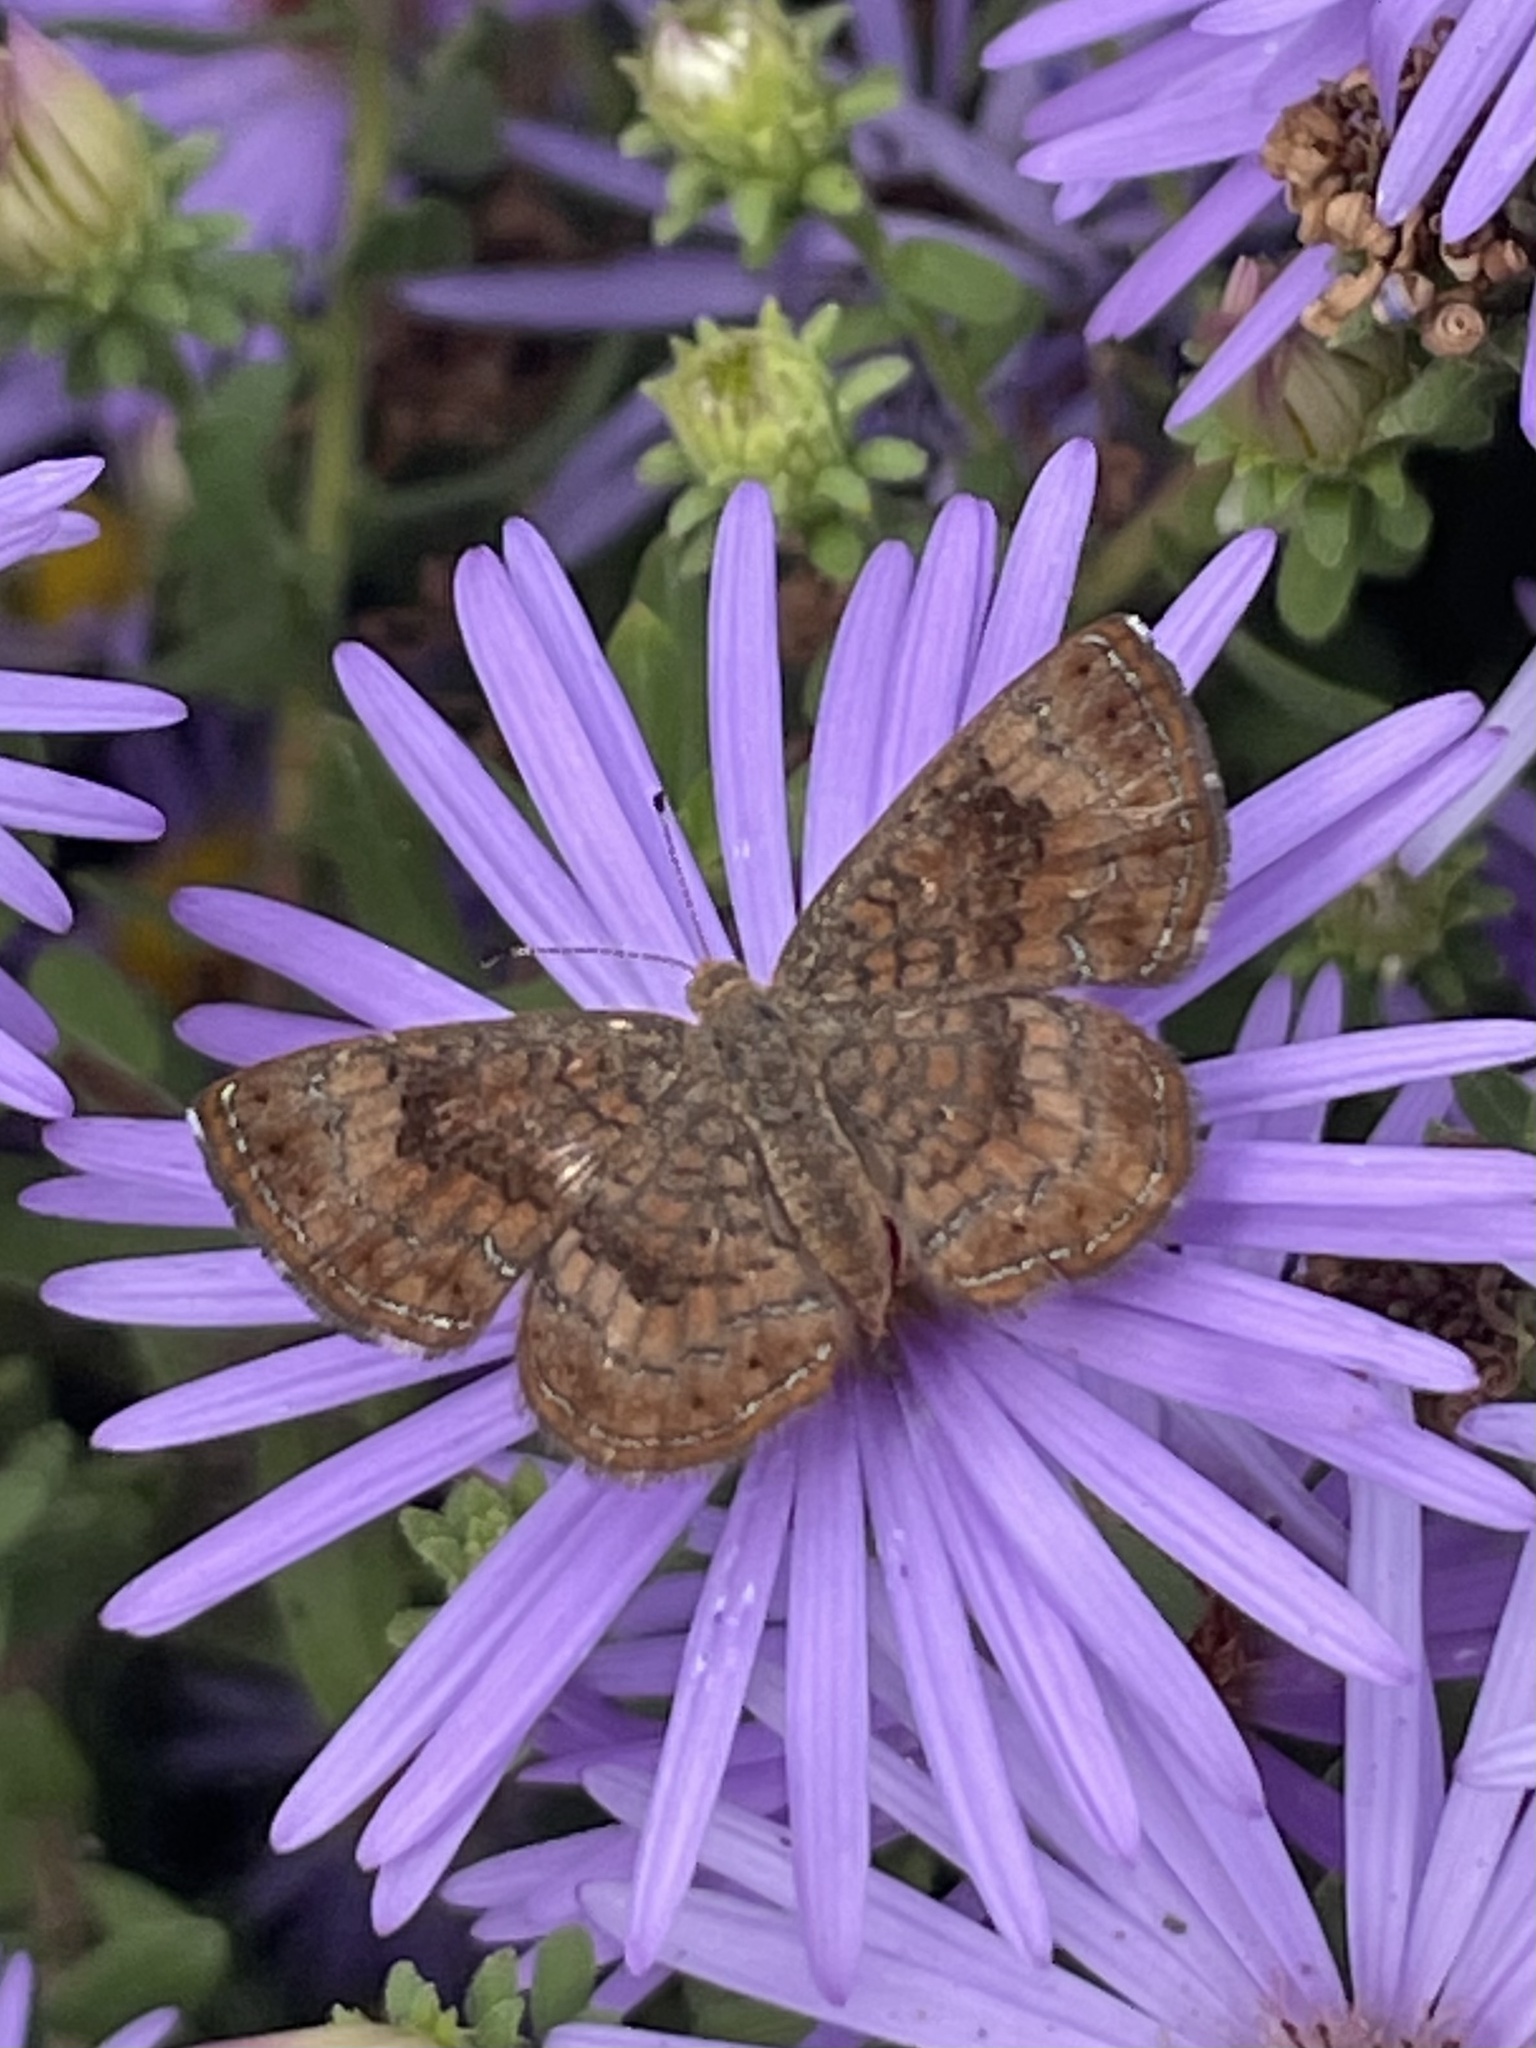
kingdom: Animalia
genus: Calephelis
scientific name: Calephelis nemesis
